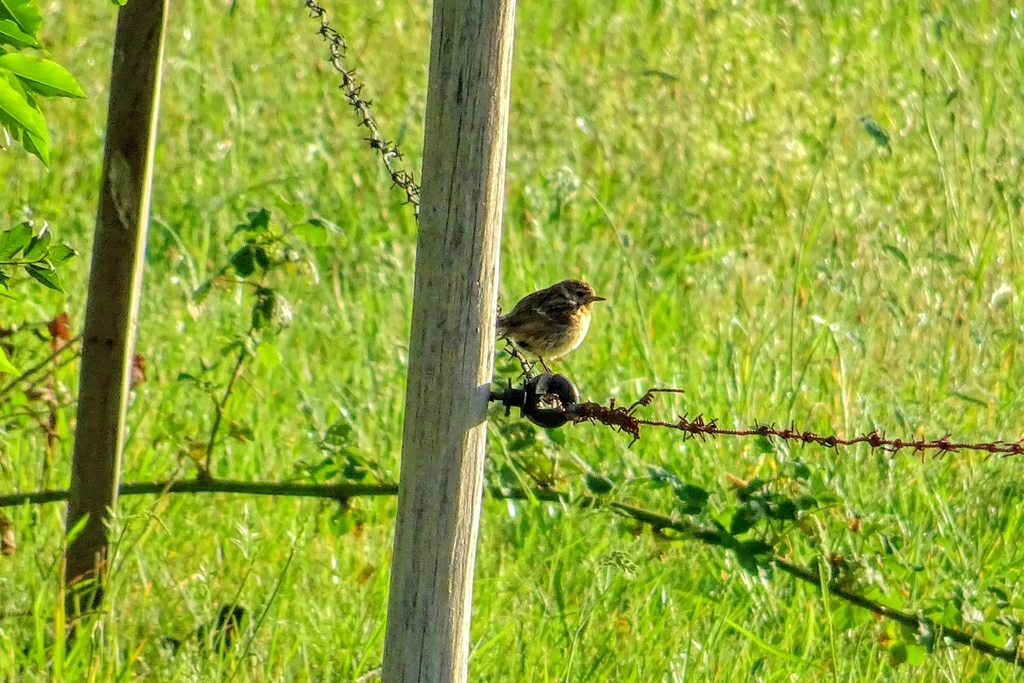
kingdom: Animalia
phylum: Chordata
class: Aves
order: Passeriformes
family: Muscicapidae
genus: Saxicola
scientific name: Saxicola rubicola
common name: European stonechat
